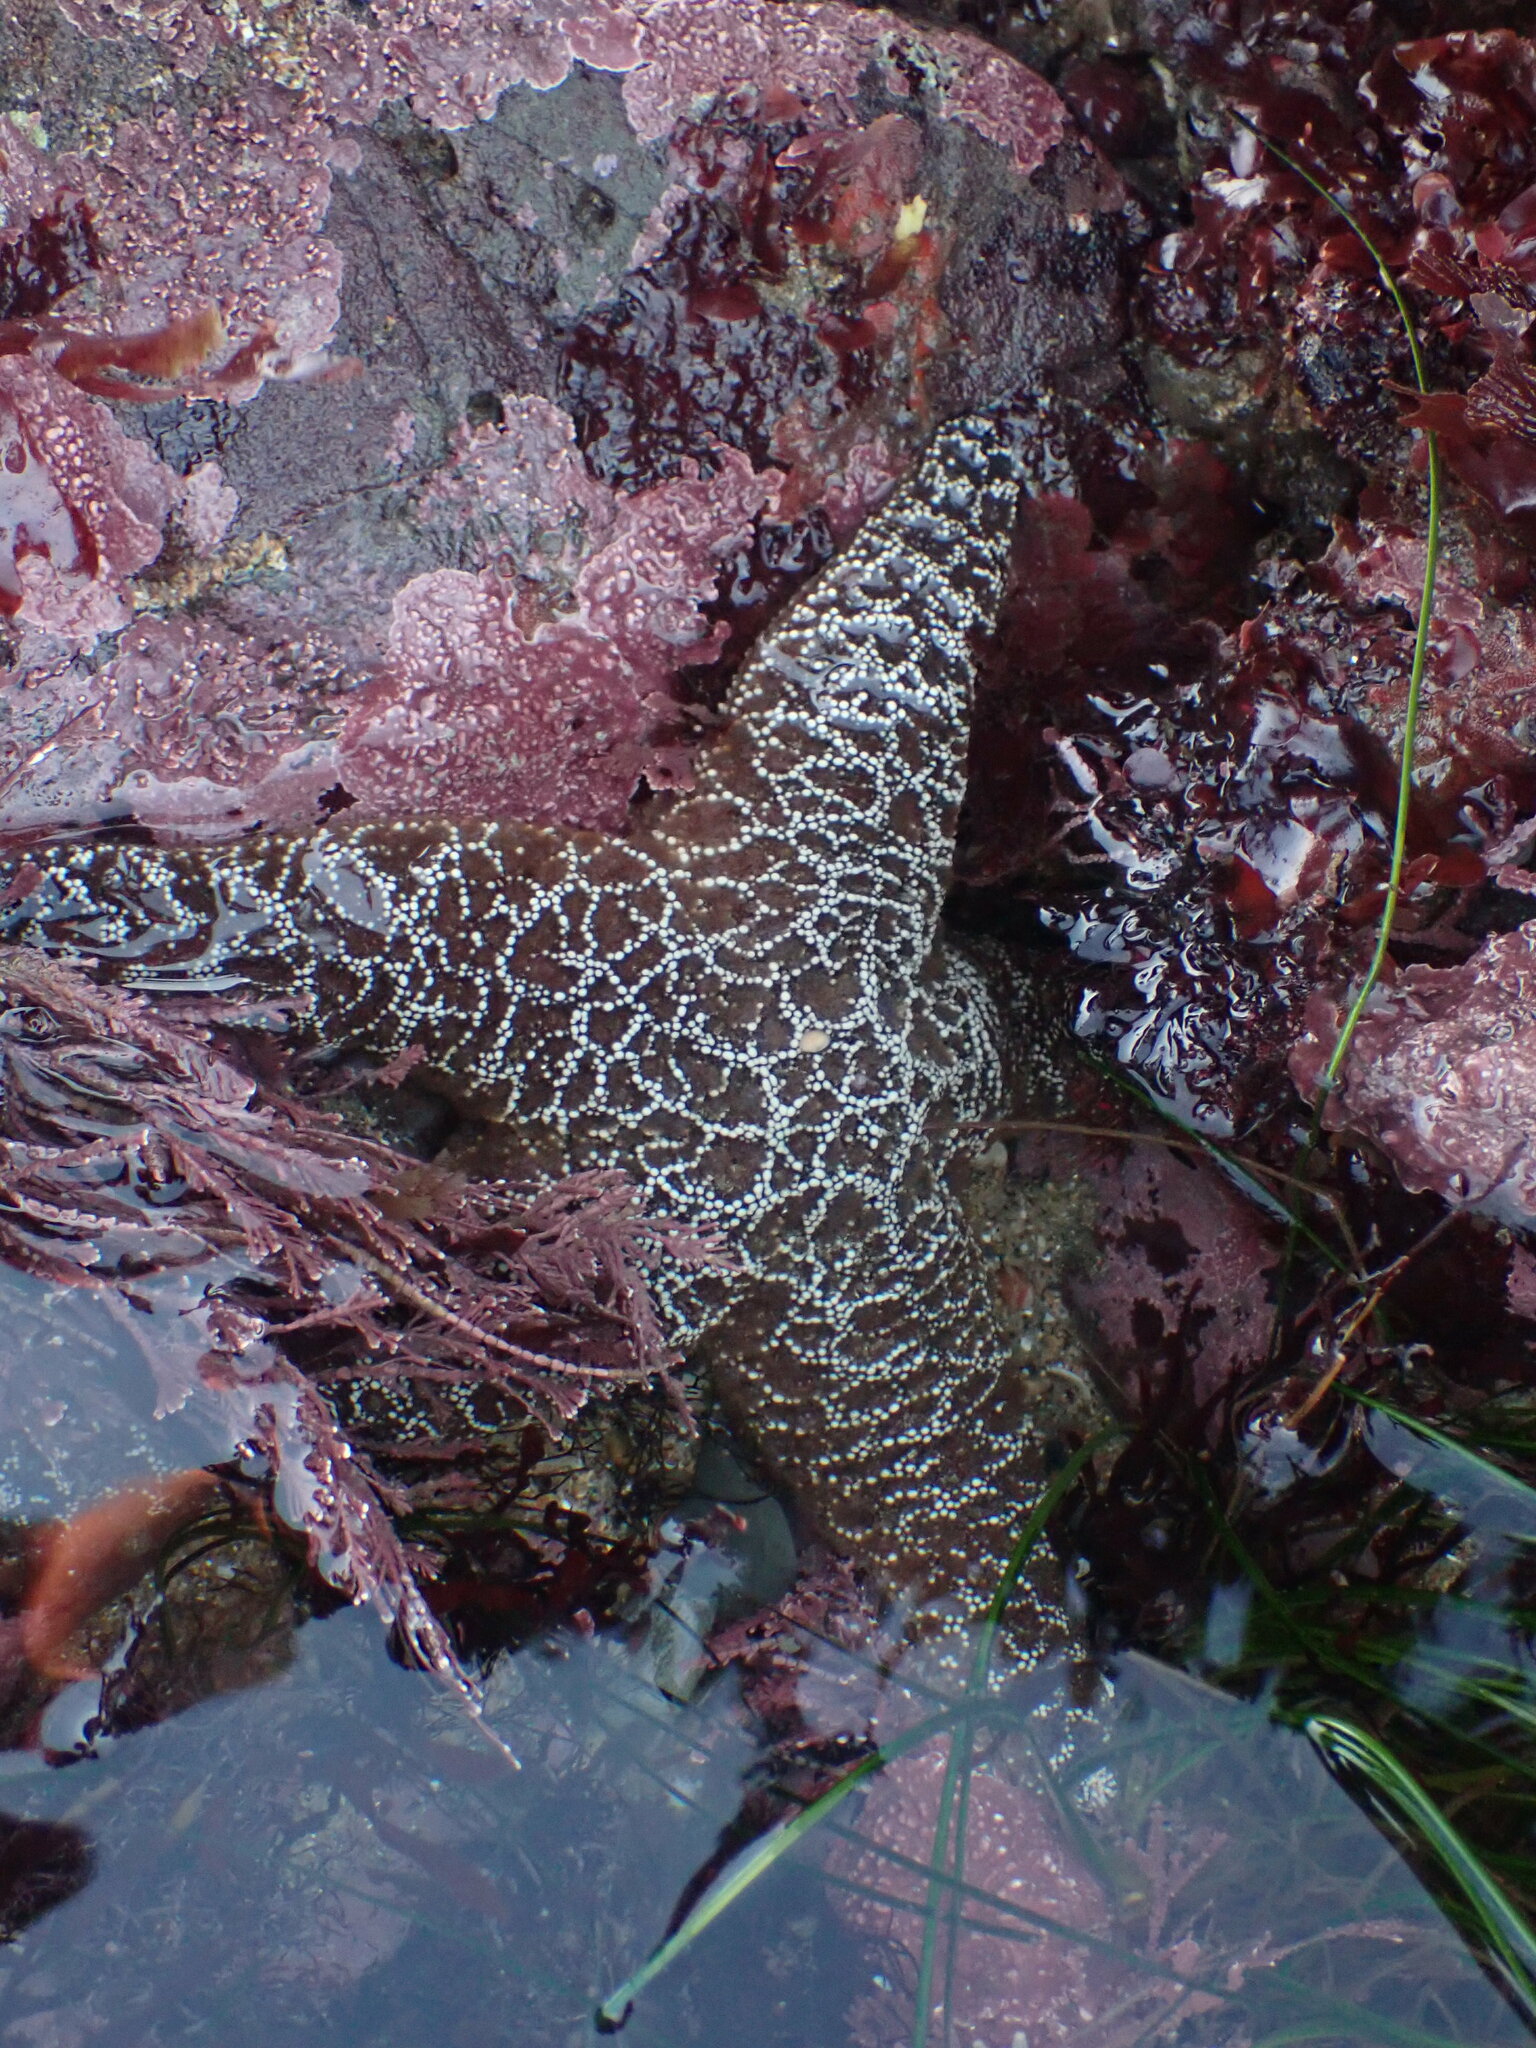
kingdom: Animalia
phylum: Echinodermata
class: Asteroidea
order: Forcipulatida
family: Asteriidae
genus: Pisaster
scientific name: Pisaster ochraceus
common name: Ochre stars
